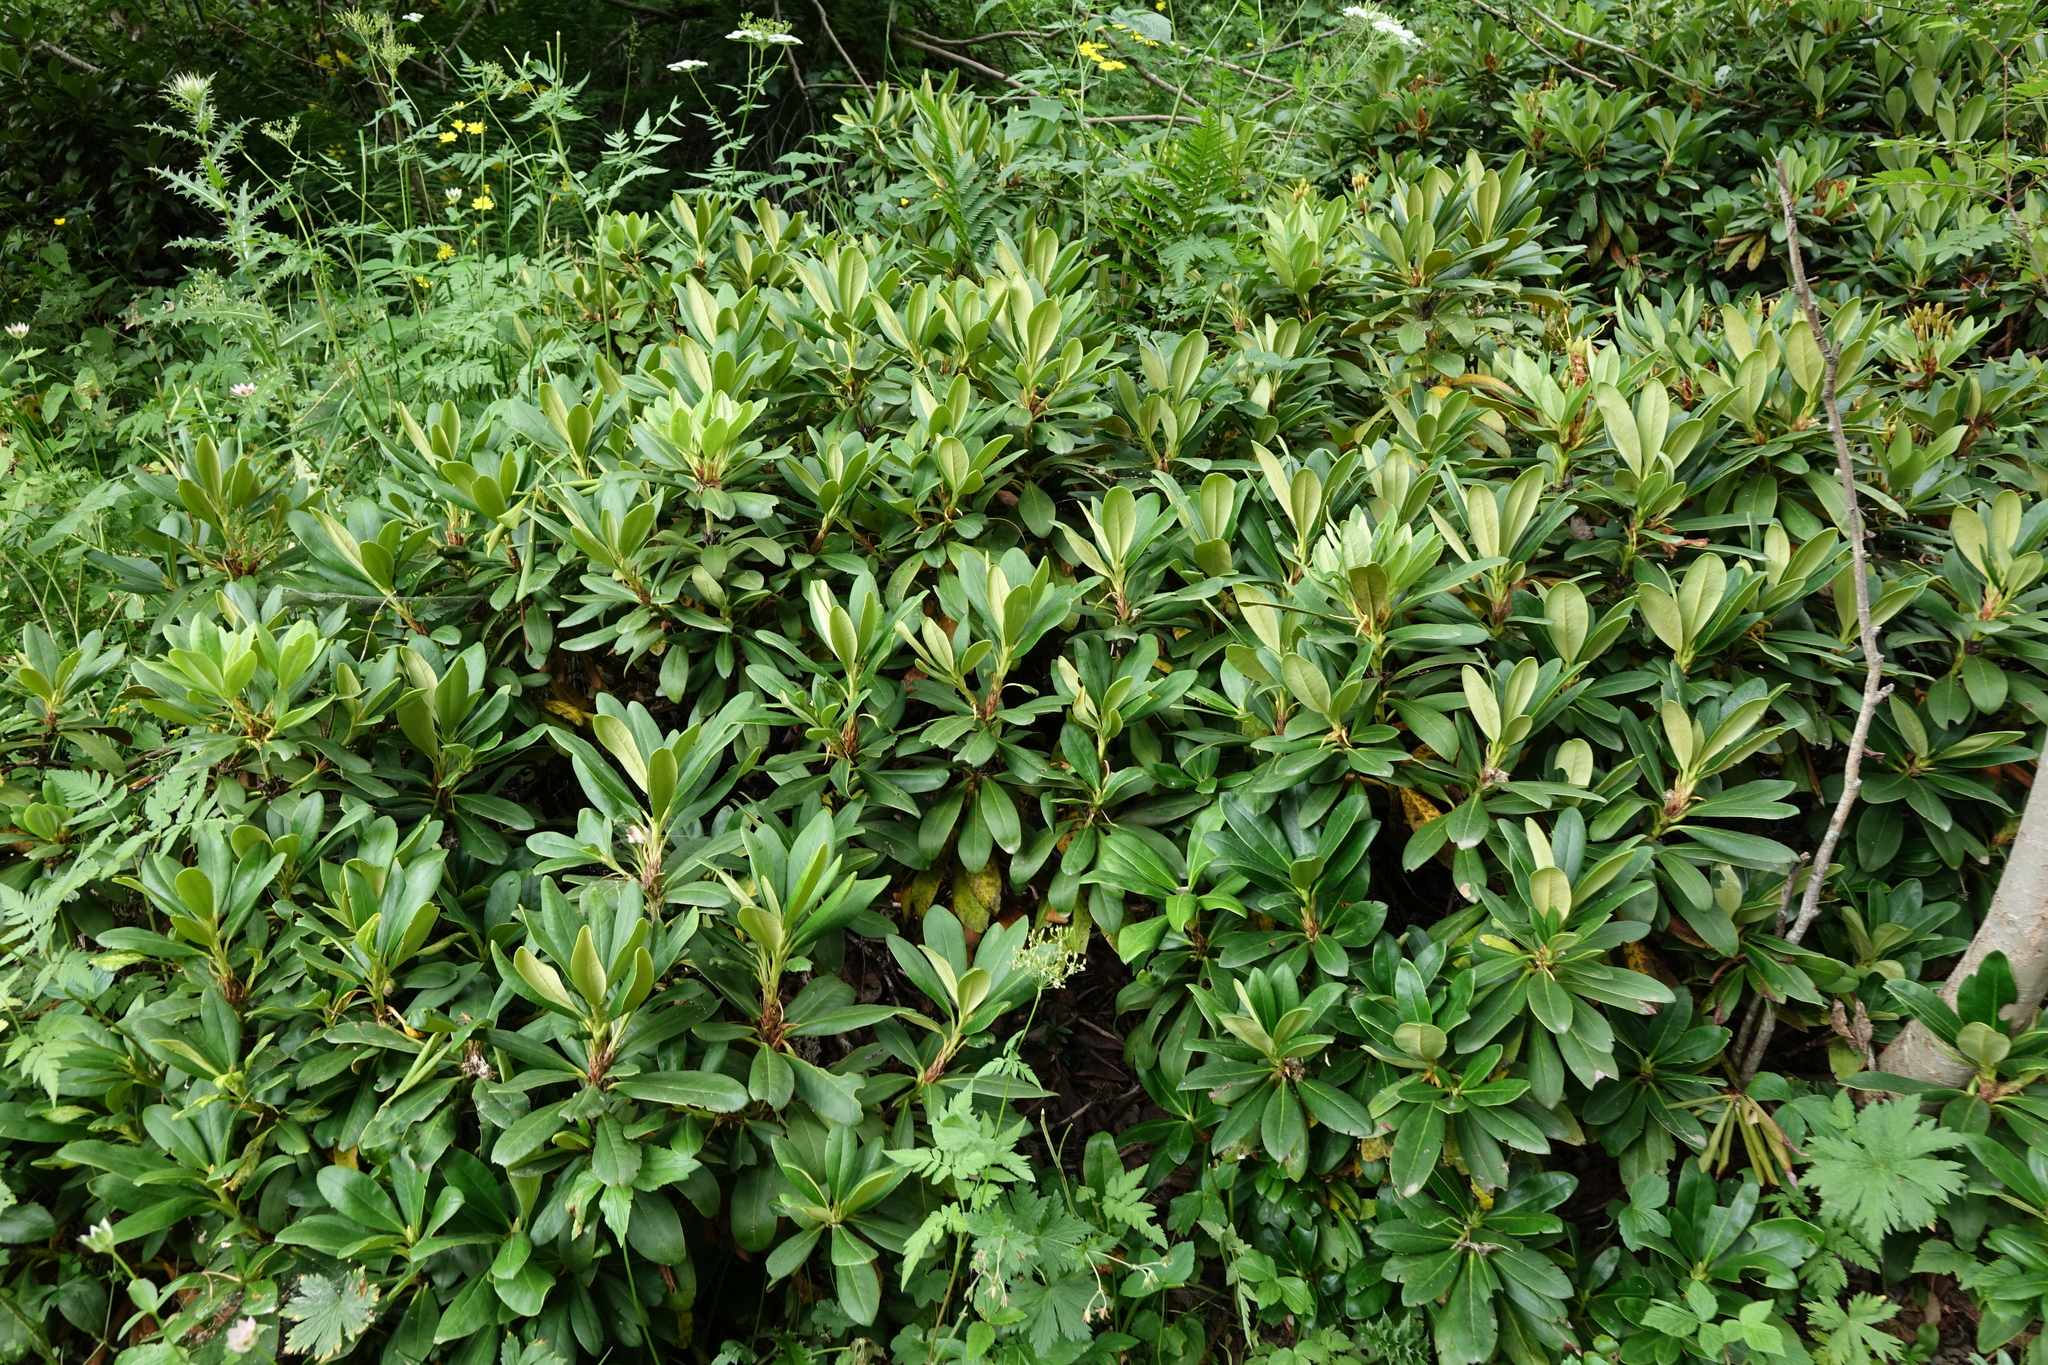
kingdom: Plantae
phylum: Tracheophyta
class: Magnoliopsida
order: Ericales
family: Ericaceae
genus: Rhododendron
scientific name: Rhododendron caucasicum
